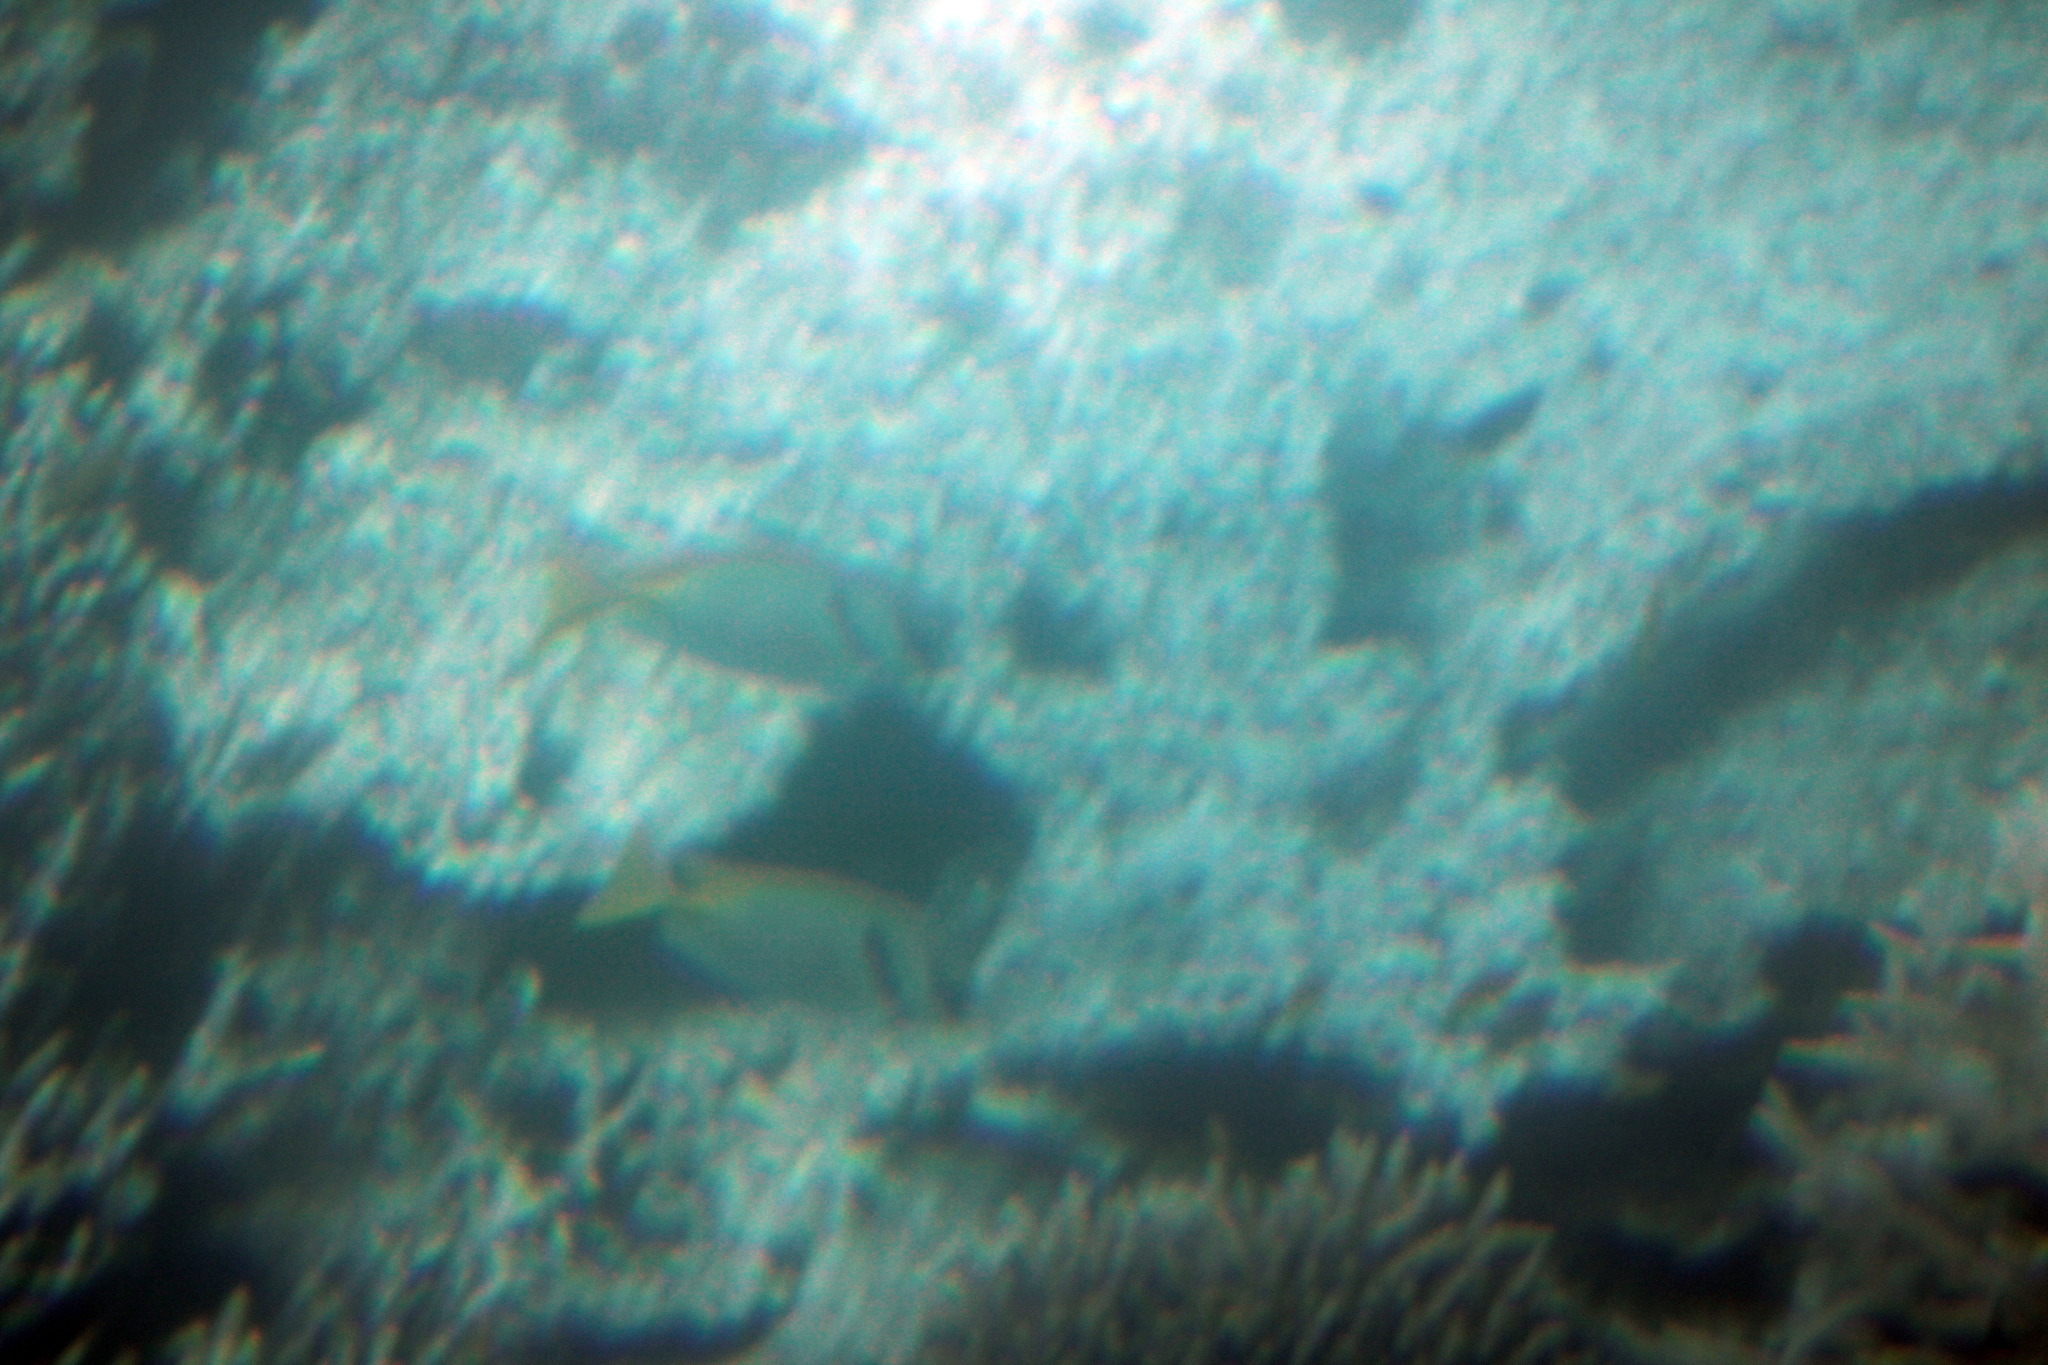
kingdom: Animalia
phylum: Chordata
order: Perciformes
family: Siganidae
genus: Siganus
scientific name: Siganus doliatus
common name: Barred spinefoot
